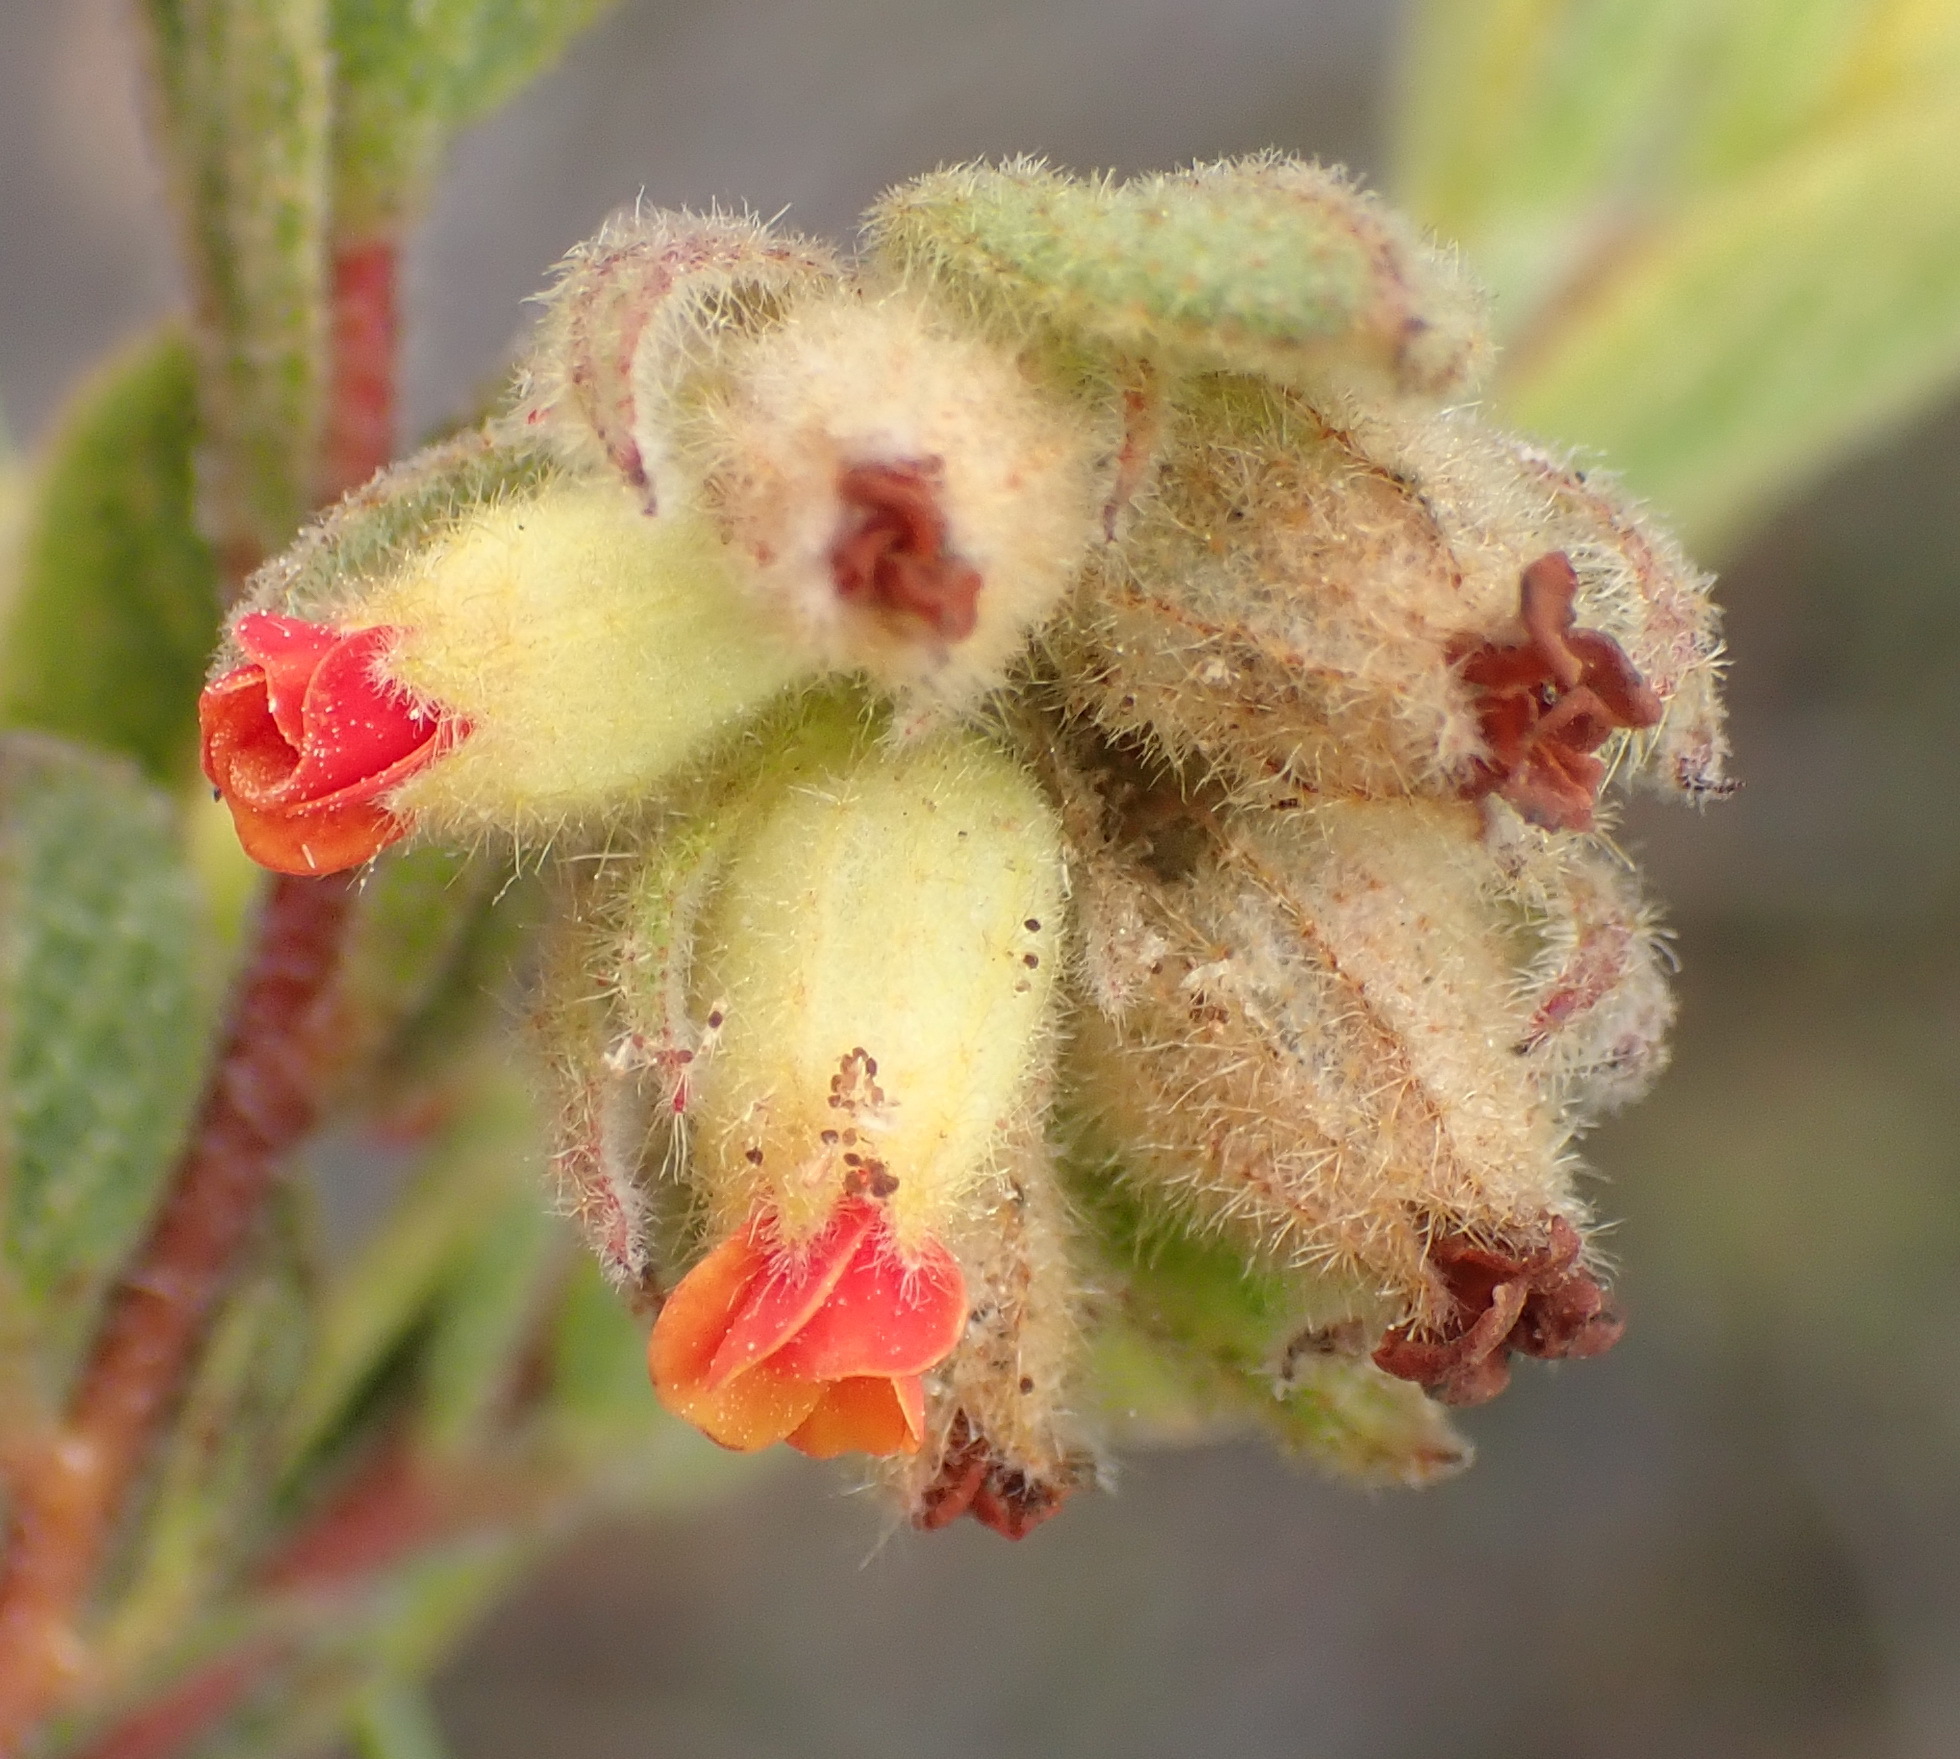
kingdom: Plantae
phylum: Tracheophyta
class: Magnoliopsida
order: Malvales
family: Malvaceae
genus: Hermannia
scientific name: Hermannia salviifolia
